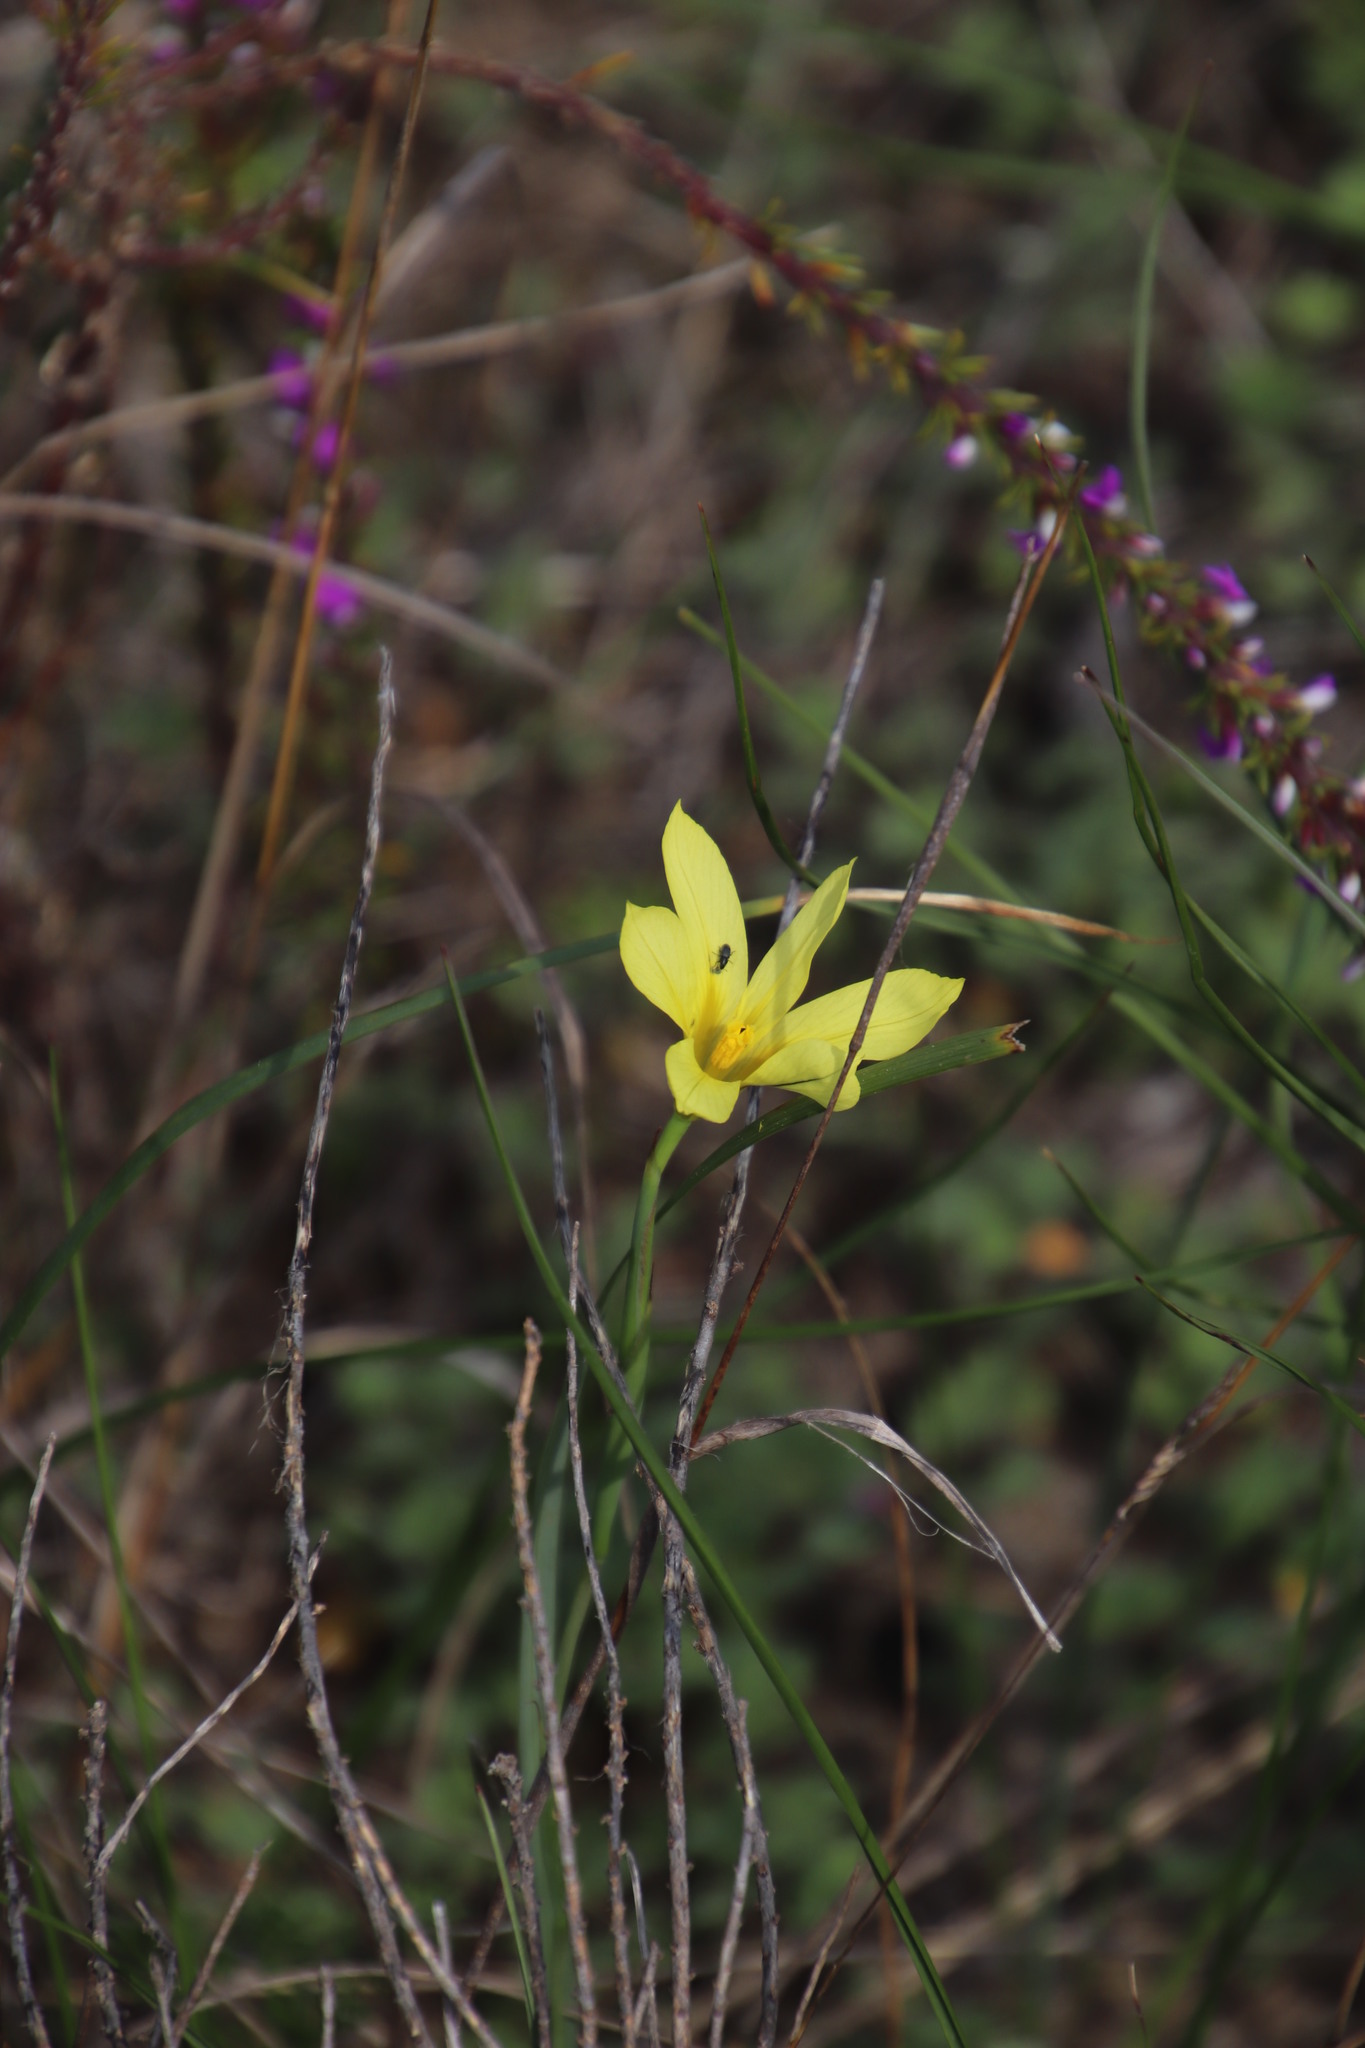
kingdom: Plantae
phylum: Tracheophyta
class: Liliopsida
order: Asparagales
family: Iridaceae
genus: Moraea
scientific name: Moraea collina
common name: Cape-tulip
